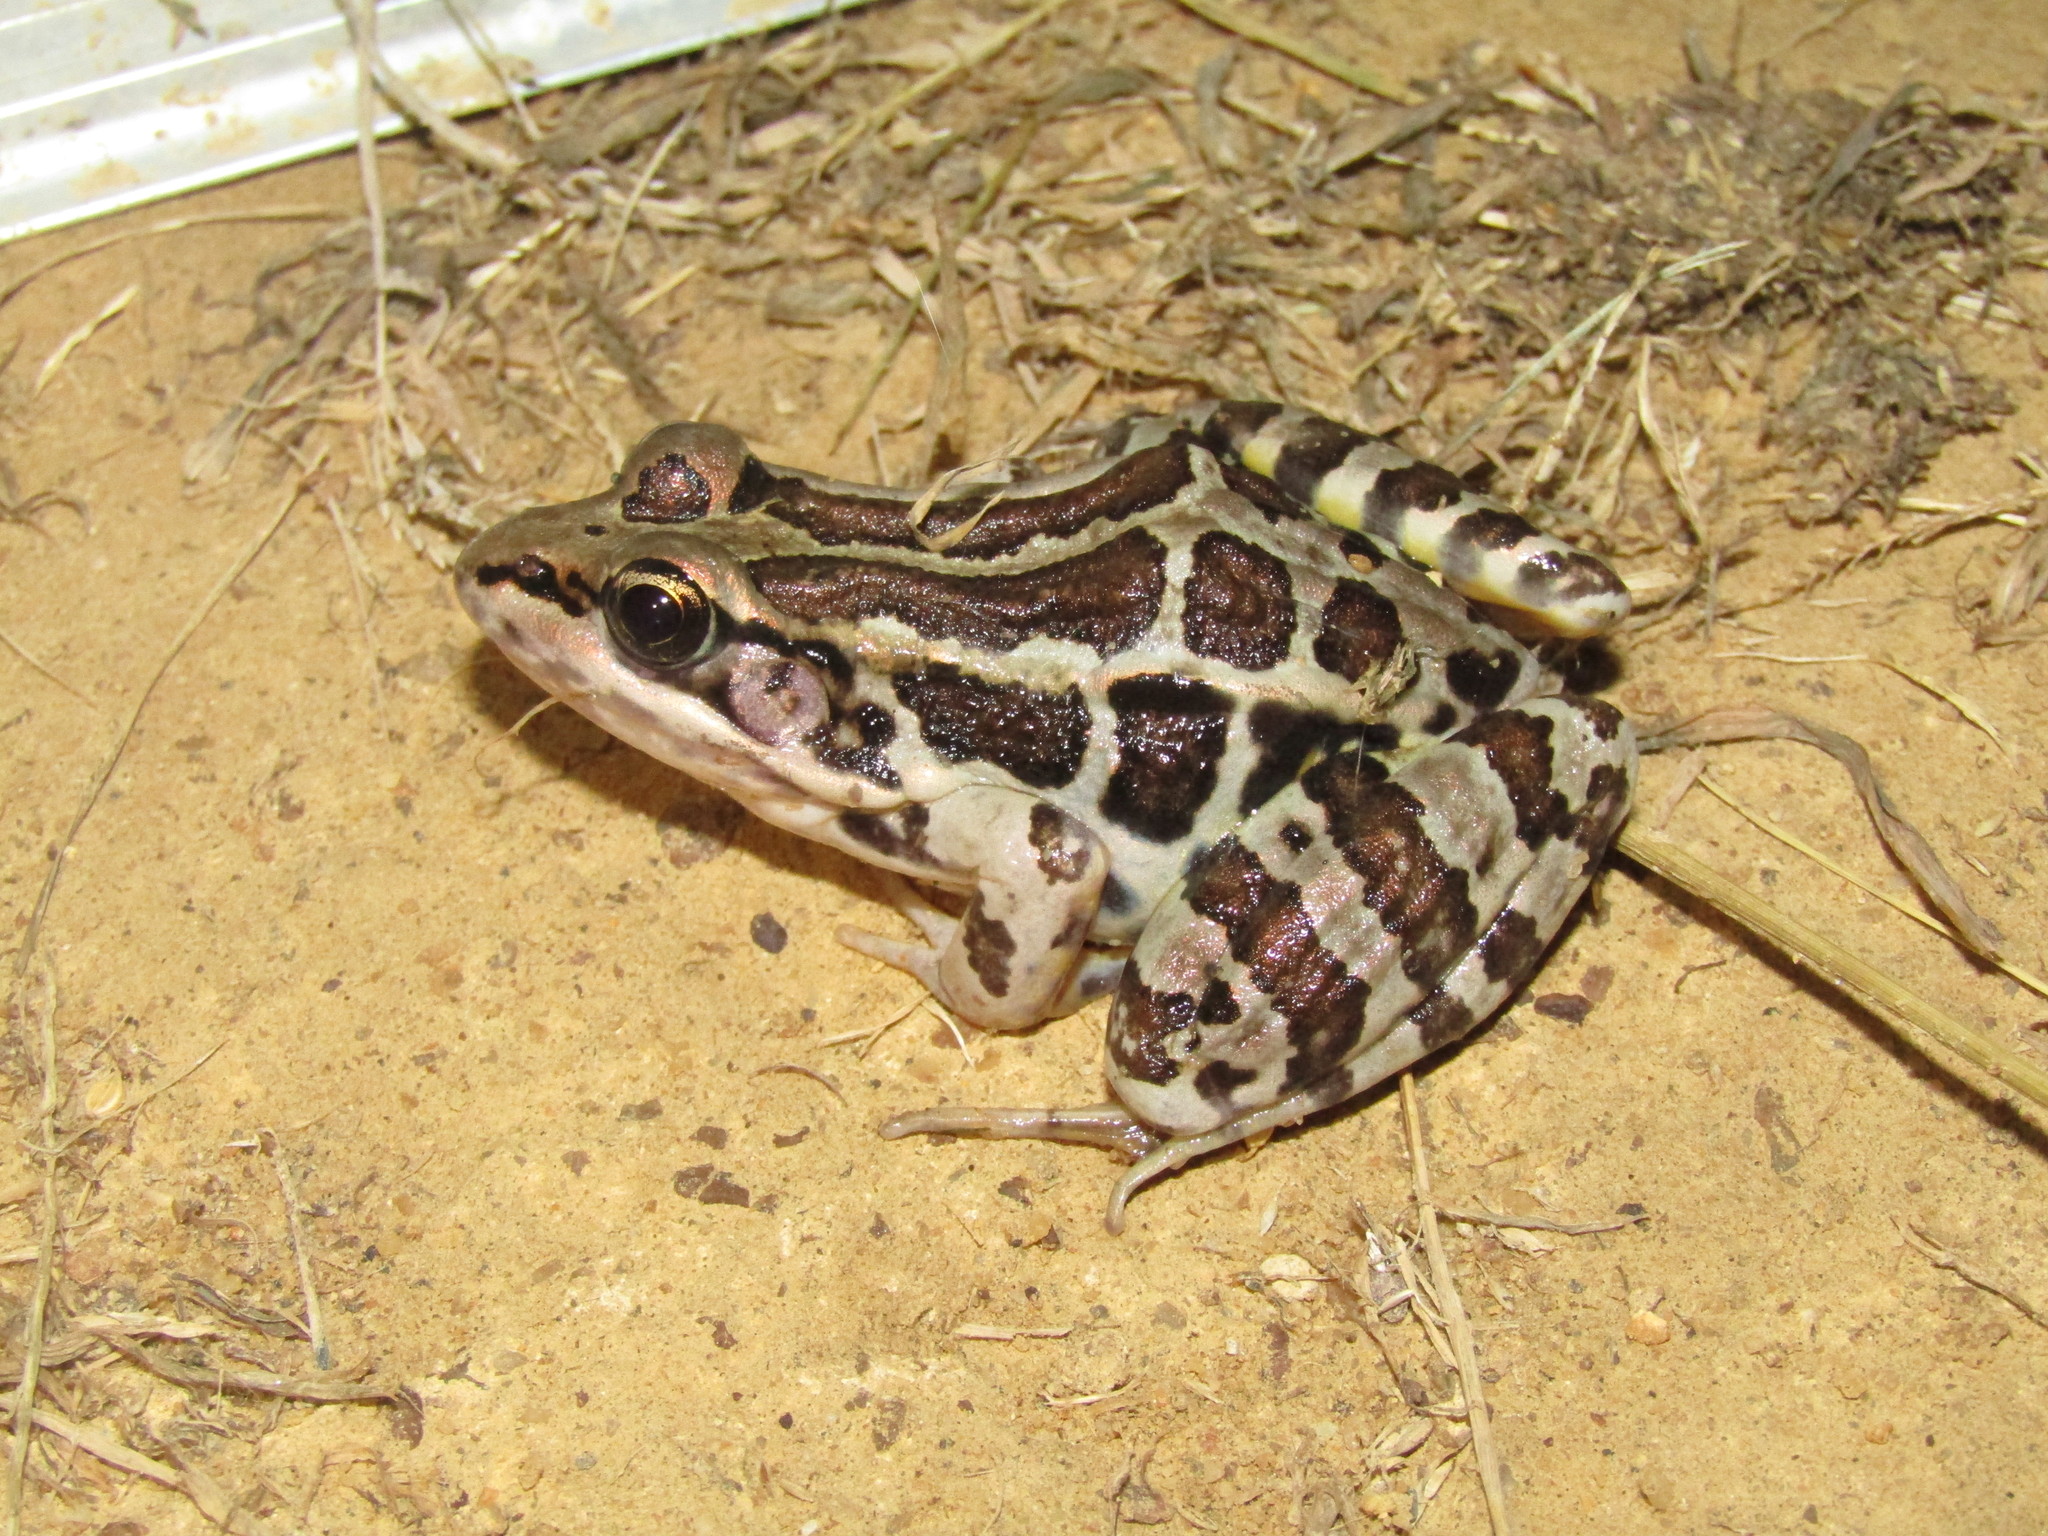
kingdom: Animalia
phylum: Chordata
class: Amphibia
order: Anura
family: Ranidae
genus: Lithobates
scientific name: Lithobates palustris
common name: Pickerel frog
